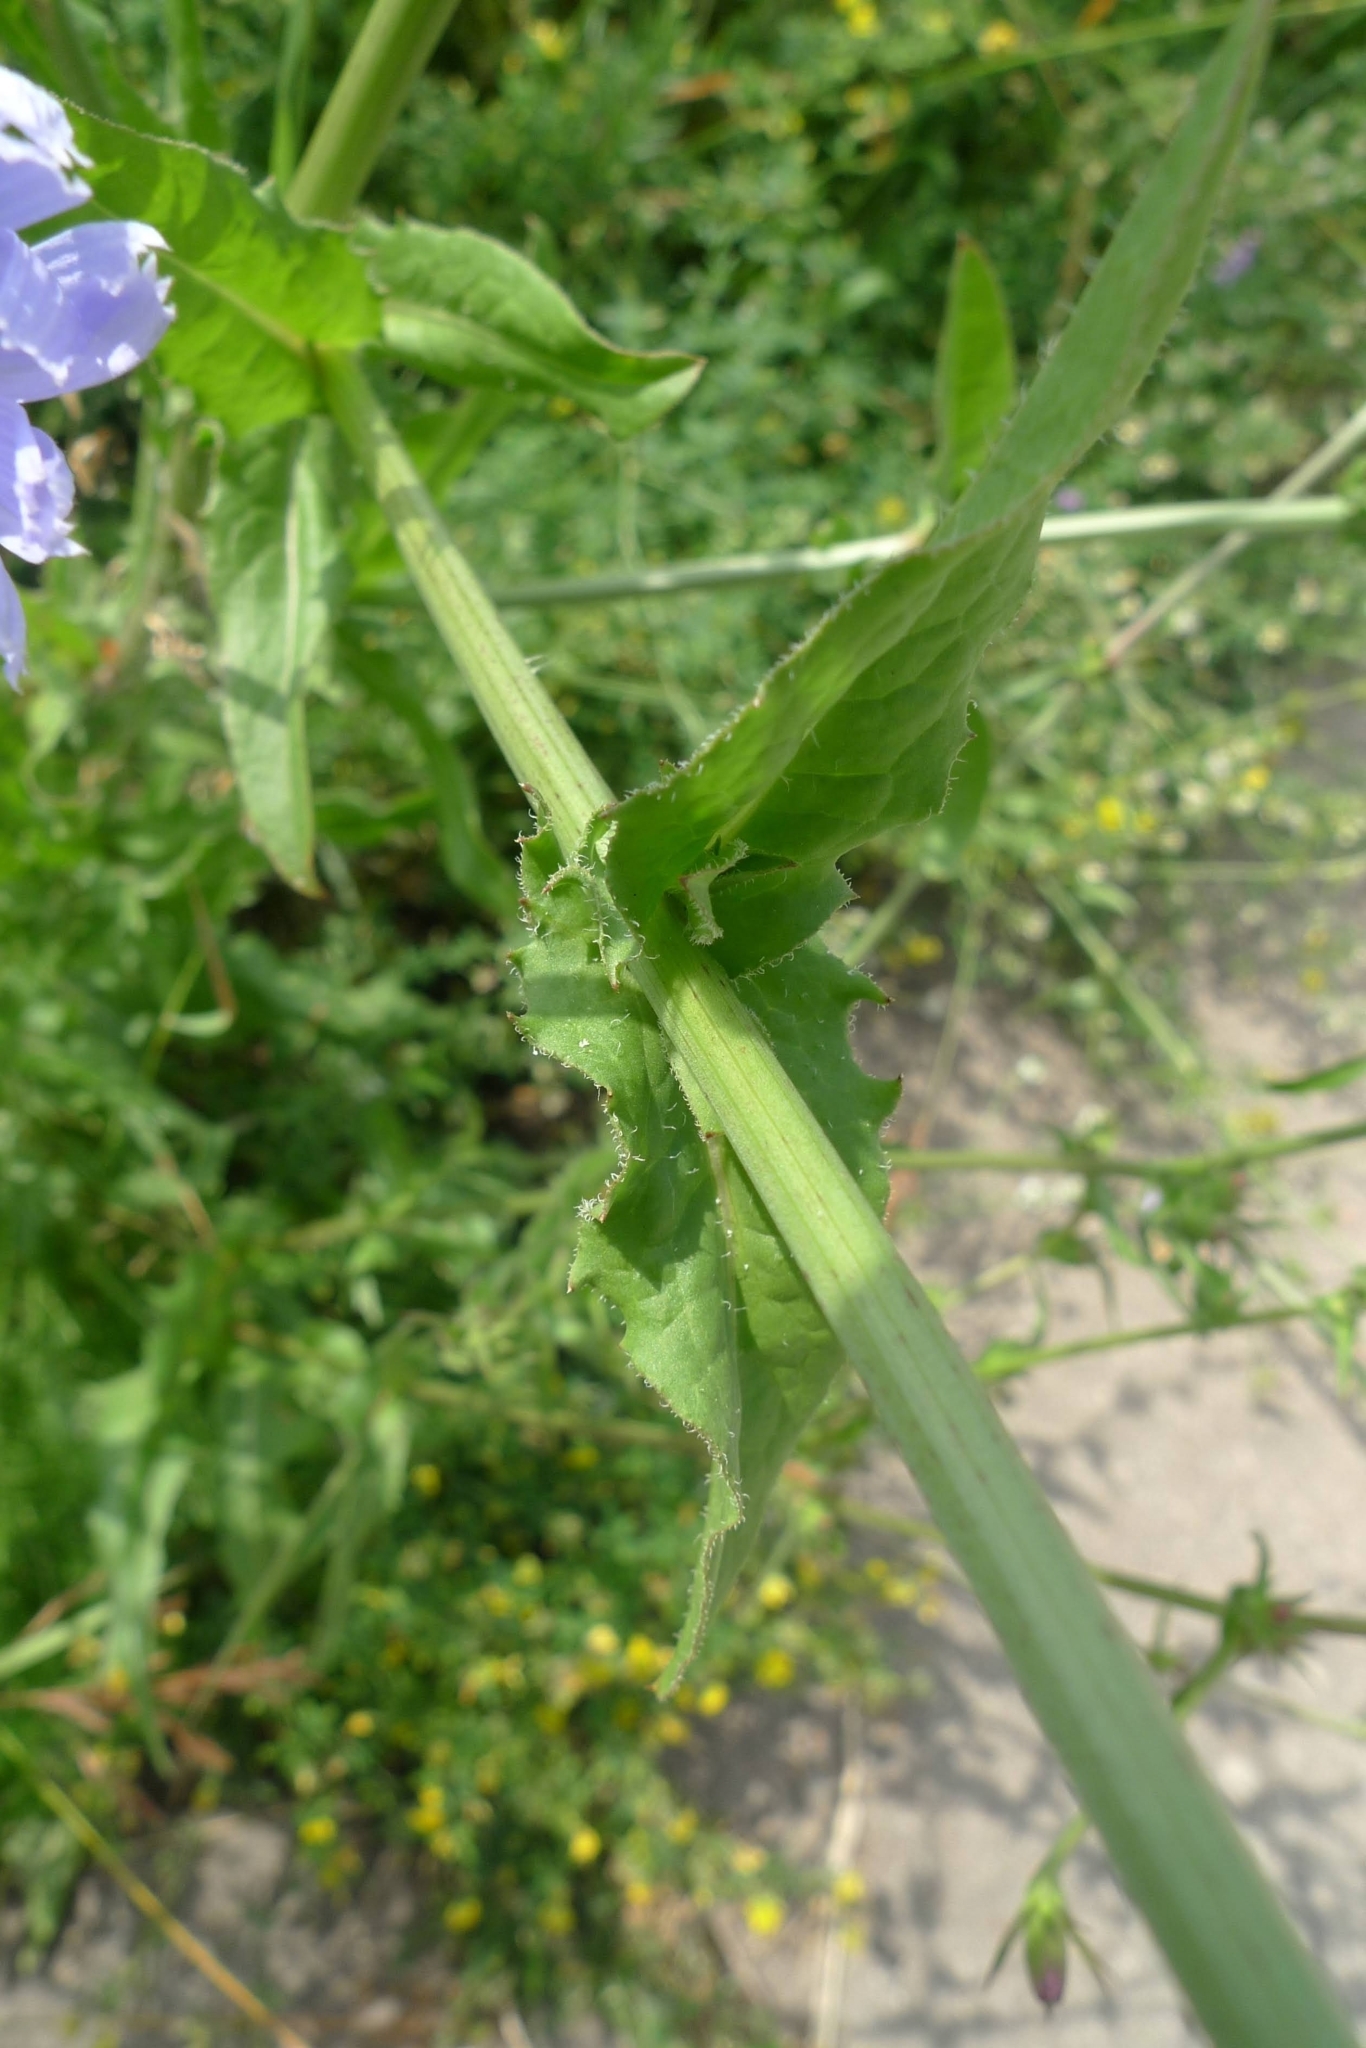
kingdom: Plantae
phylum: Tracheophyta
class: Magnoliopsida
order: Asterales
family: Asteraceae
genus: Cichorium
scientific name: Cichorium intybus
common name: Chicory
